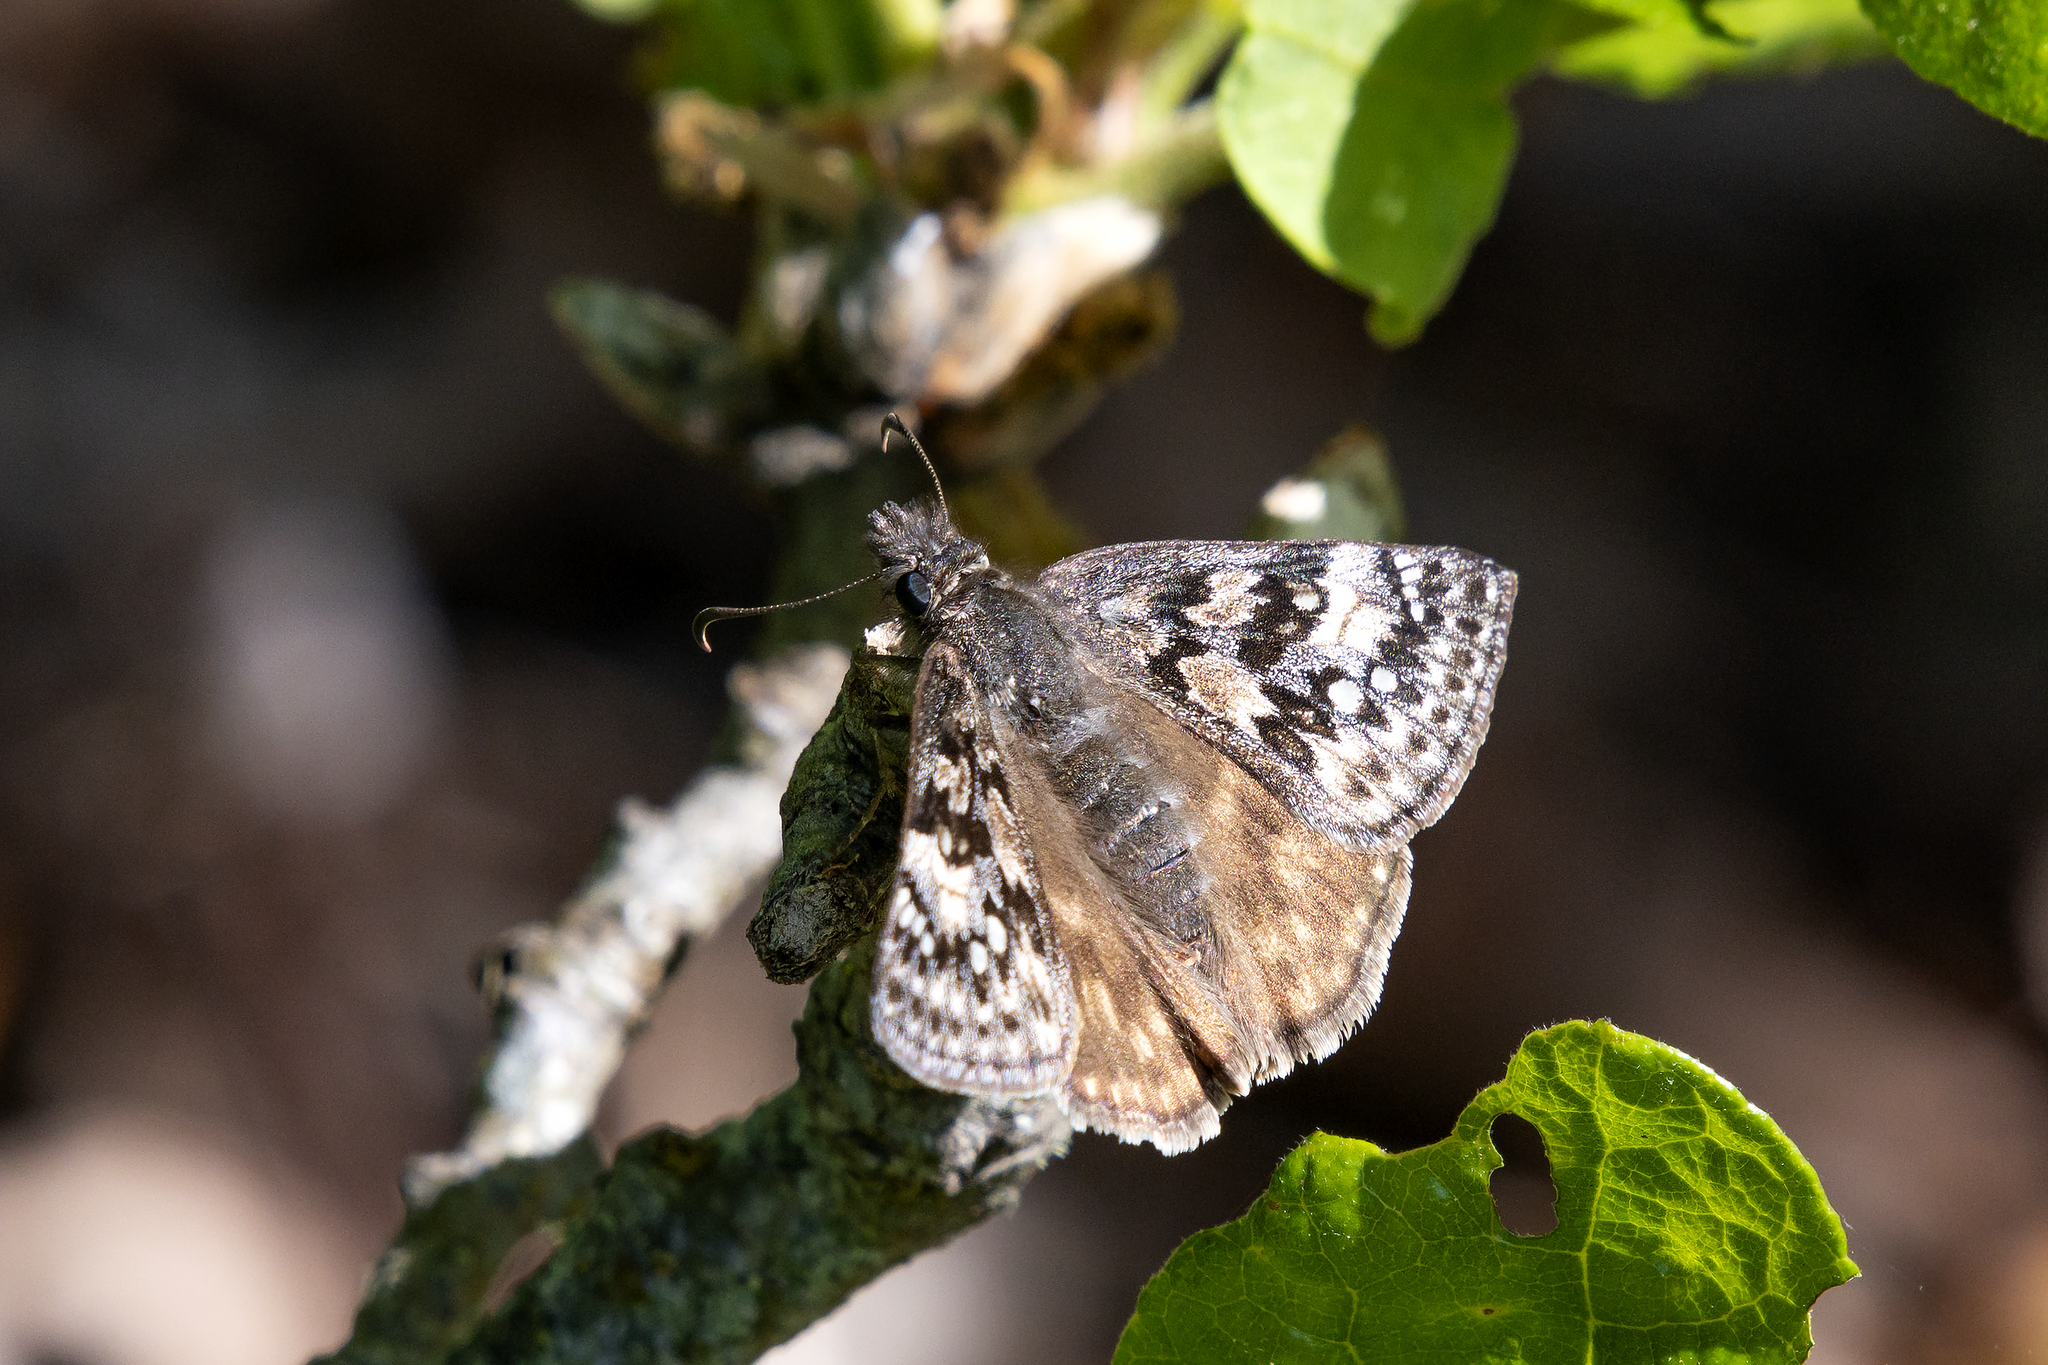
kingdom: Animalia
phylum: Arthropoda
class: Insecta
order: Lepidoptera
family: Hesperiidae
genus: Erynnis
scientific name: Erynnis propertius
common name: Propertius duskywing
